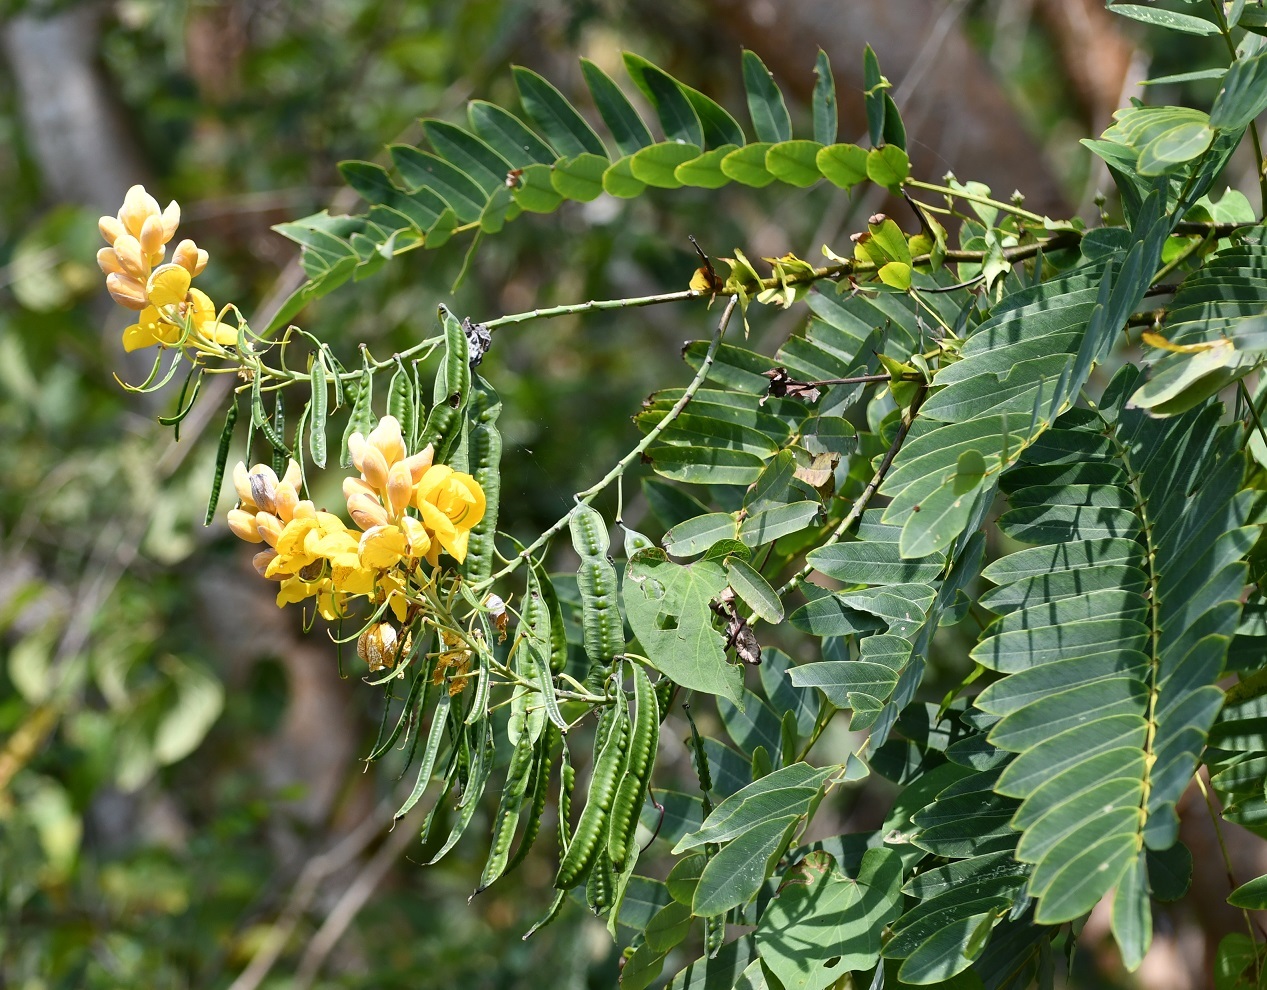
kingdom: Plantae
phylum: Tracheophyta
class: Magnoliopsida
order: Fabales
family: Fabaceae
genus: Senna
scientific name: Senna nicaraguensis
